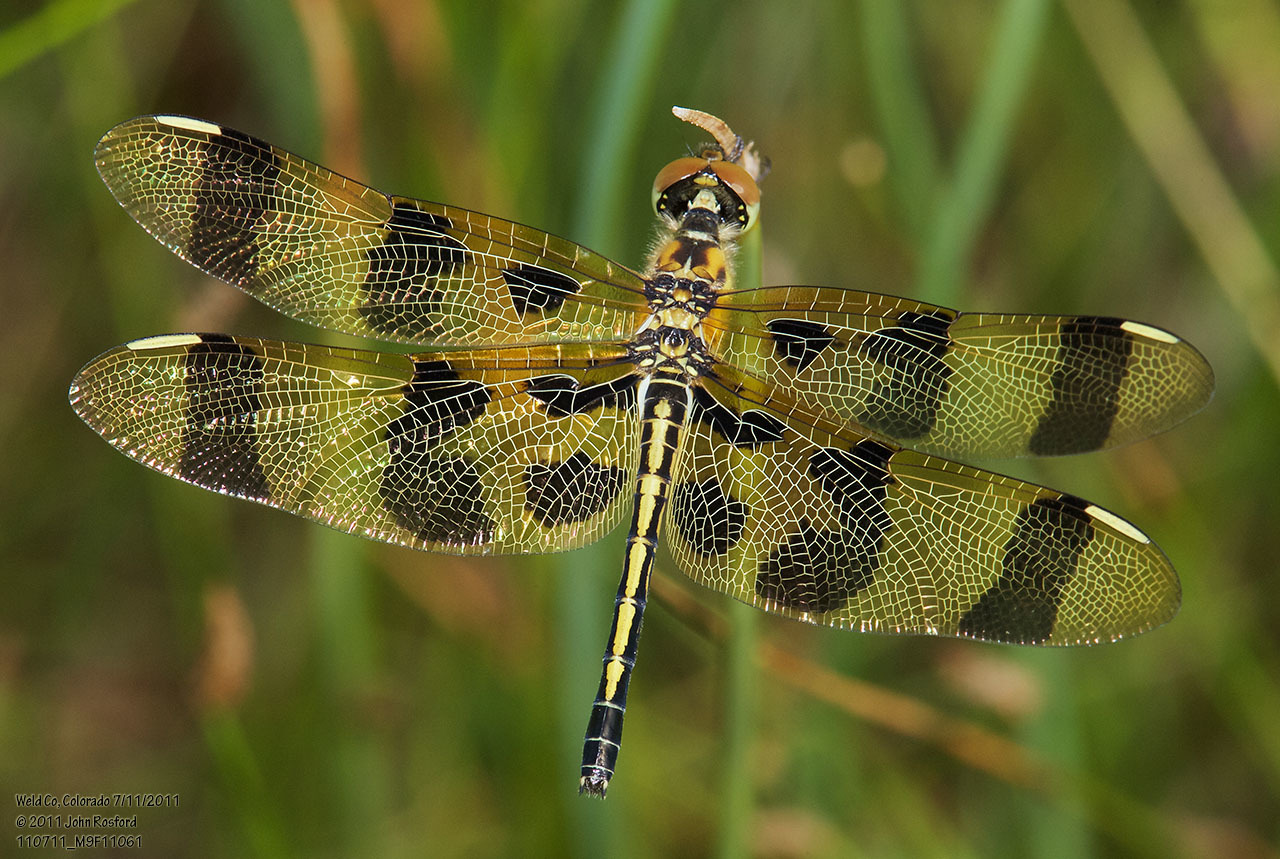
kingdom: Animalia
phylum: Arthropoda
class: Insecta
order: Odonata
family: Libellulidae
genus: Celithemis
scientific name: Celithemis eponina
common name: Halloween pennant
